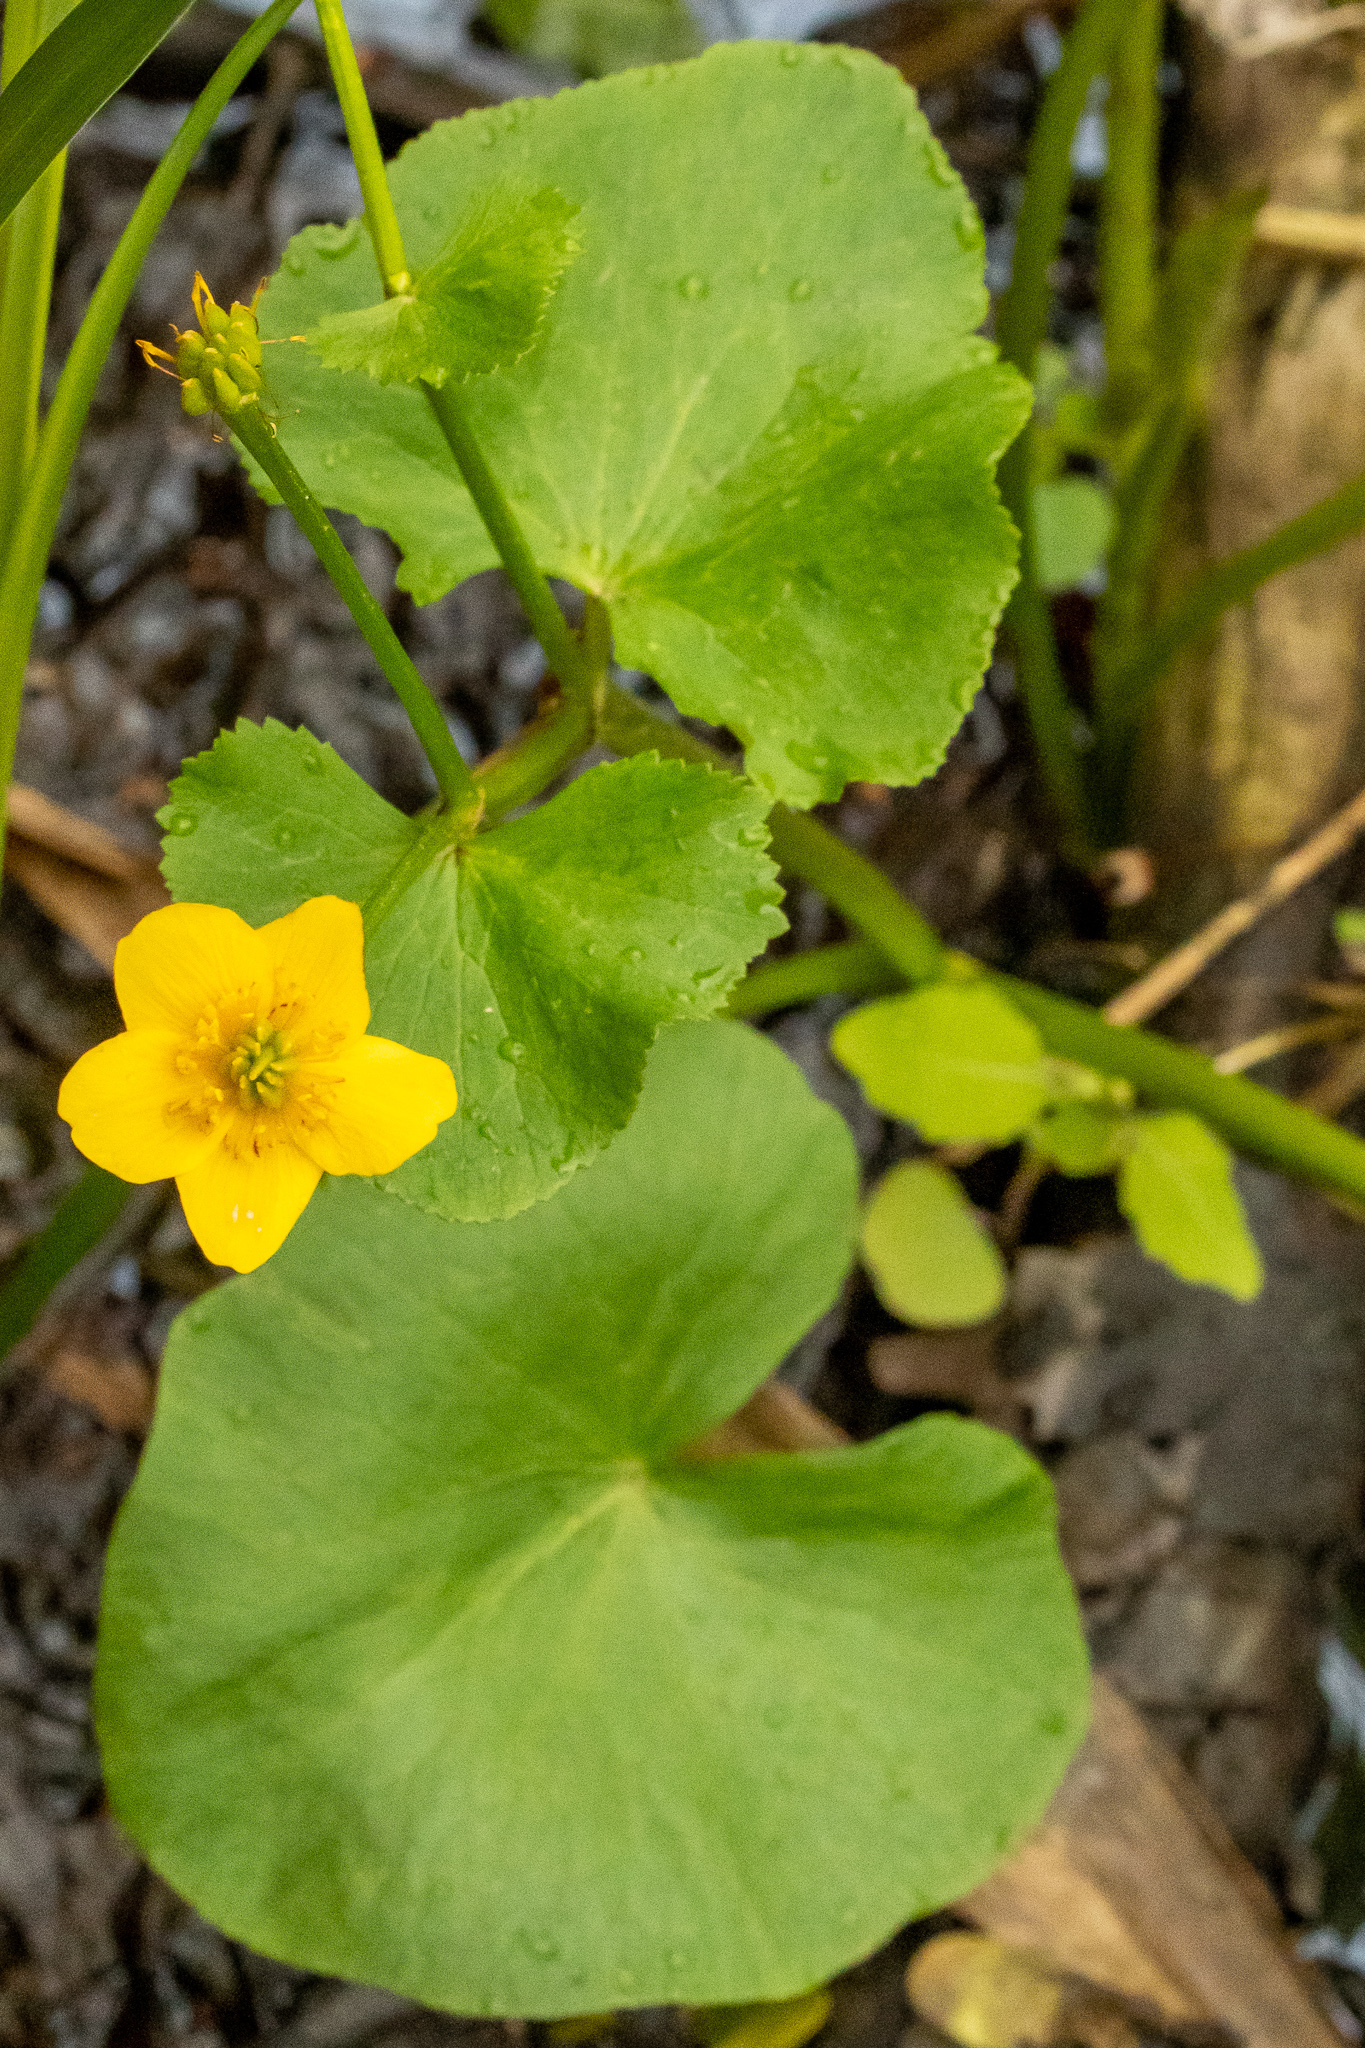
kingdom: Plantae
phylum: Tracheophyta
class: Magnoliopsida
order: Ranunculales
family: Ranunculaceae
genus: Caltha
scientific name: Caltha palustris
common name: Marsh marigold
